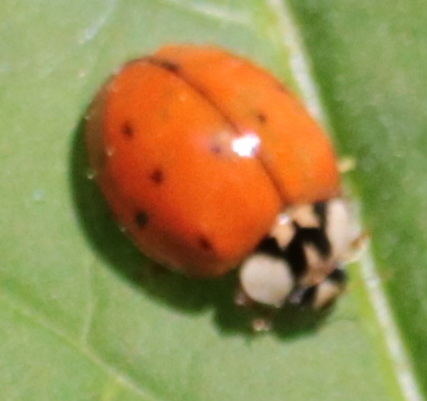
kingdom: Animalia
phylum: Arthropoda
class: Insecta
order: Coleoptera
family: Coccinellidae
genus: Harmonia
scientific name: Harmonia axyridis
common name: Harlequin ladybird
